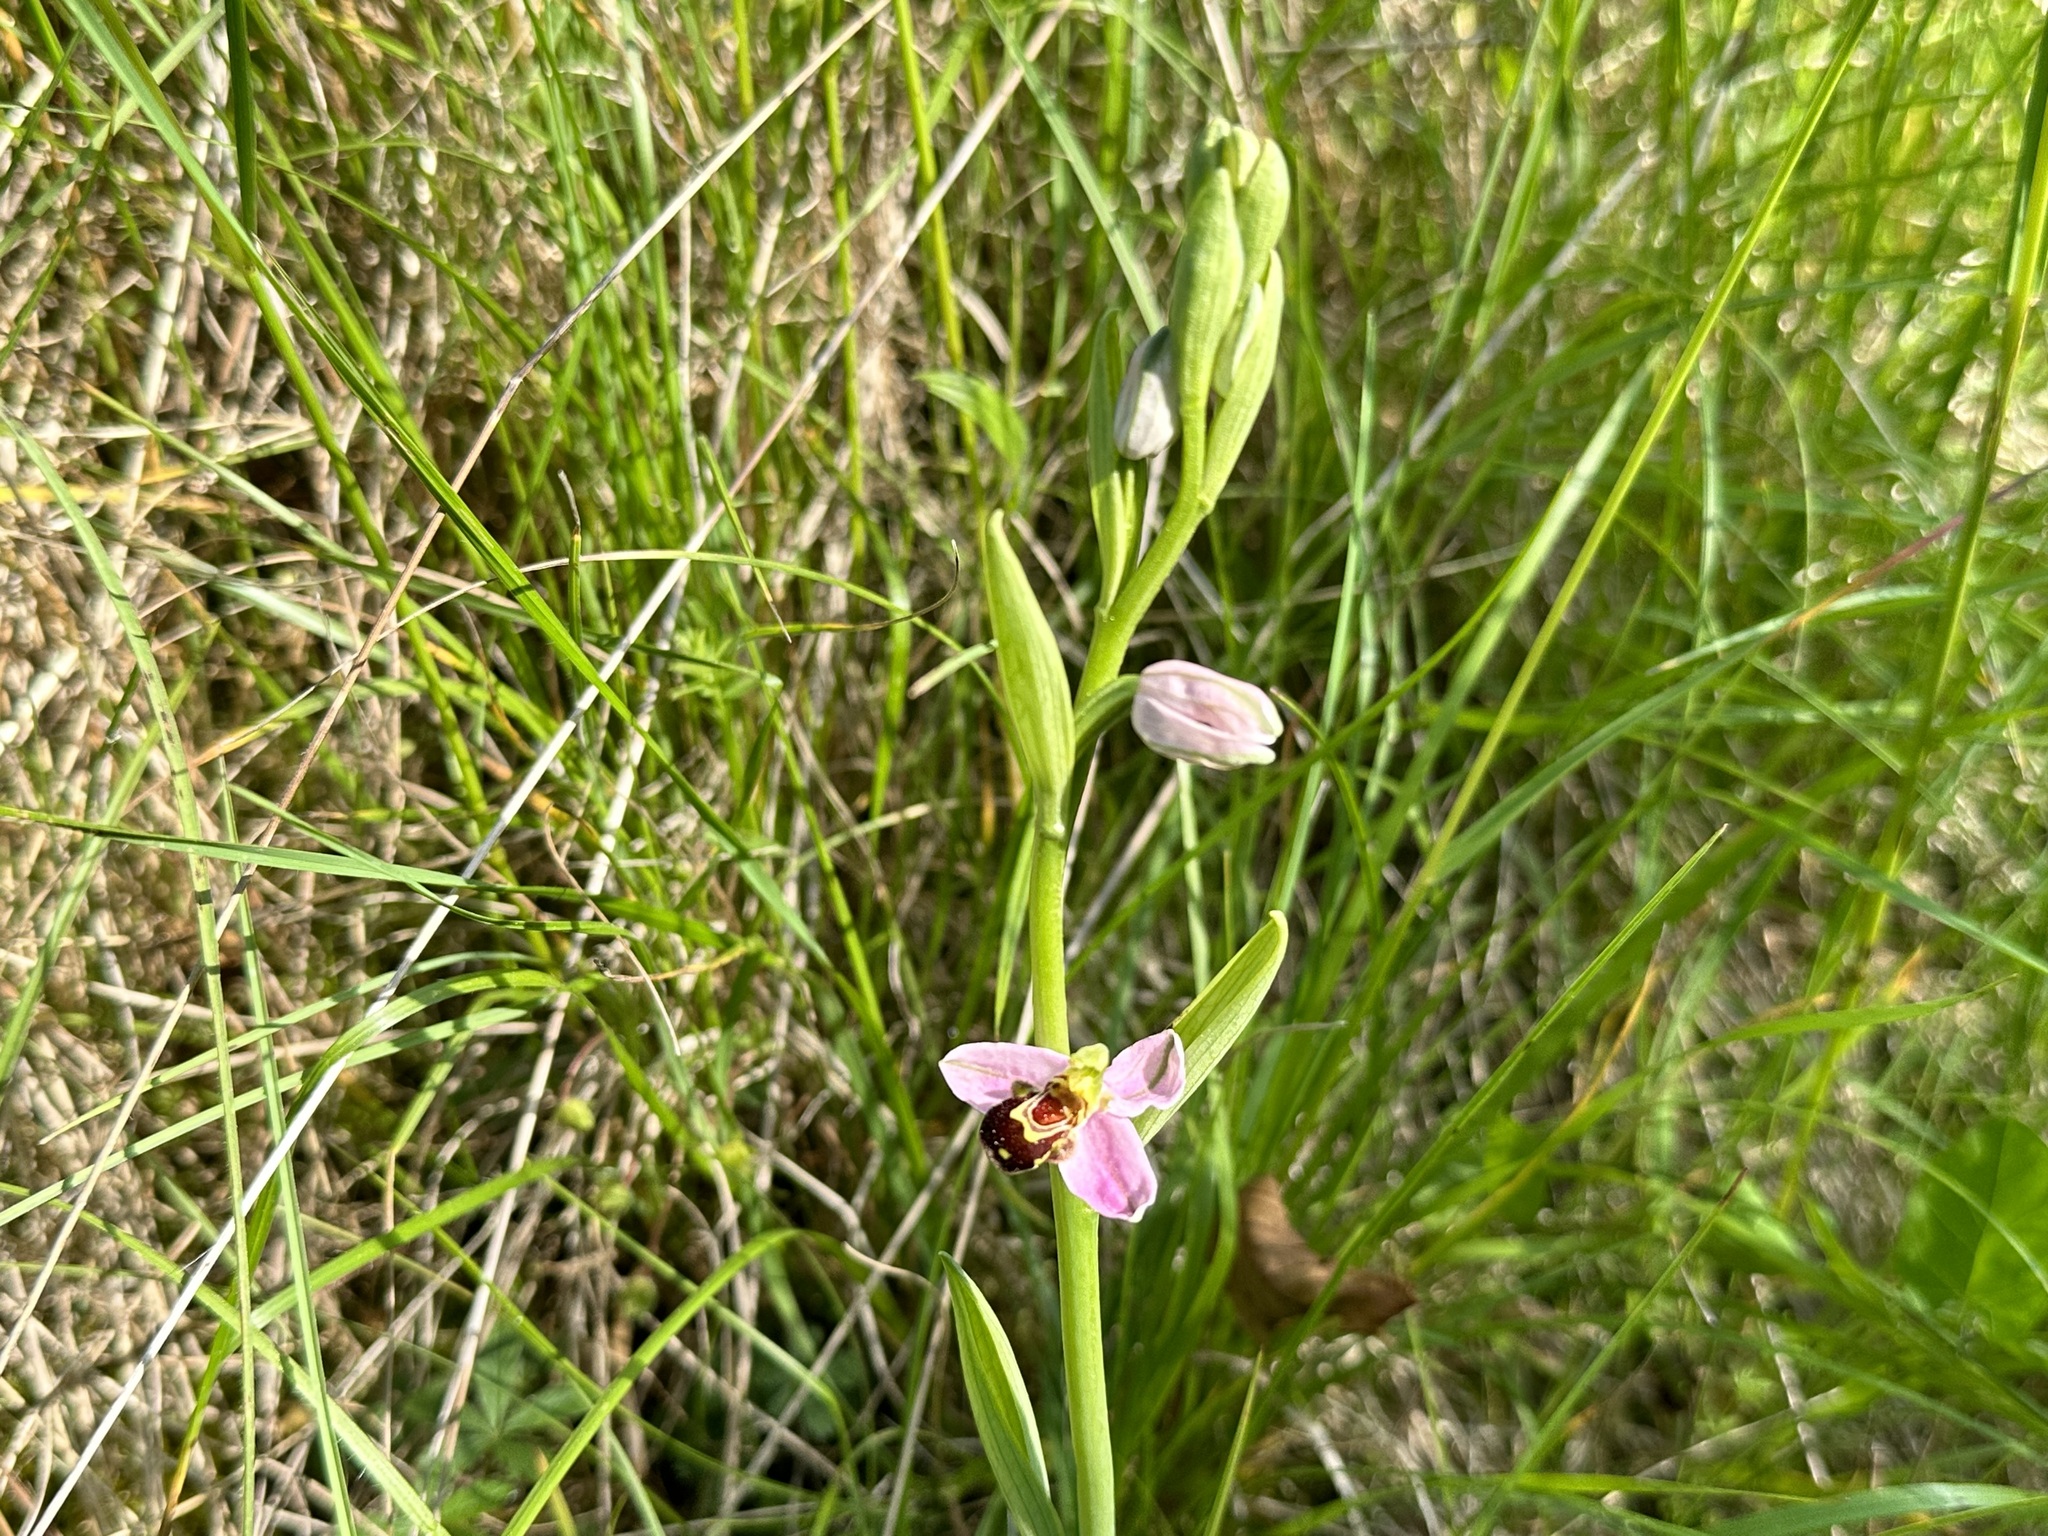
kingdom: Plantae
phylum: Tracheophyta
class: Liliopsida
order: Asparagales
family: Orchidaceae
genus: Ophrys
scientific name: Ophrys apifera
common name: Bee orchid
